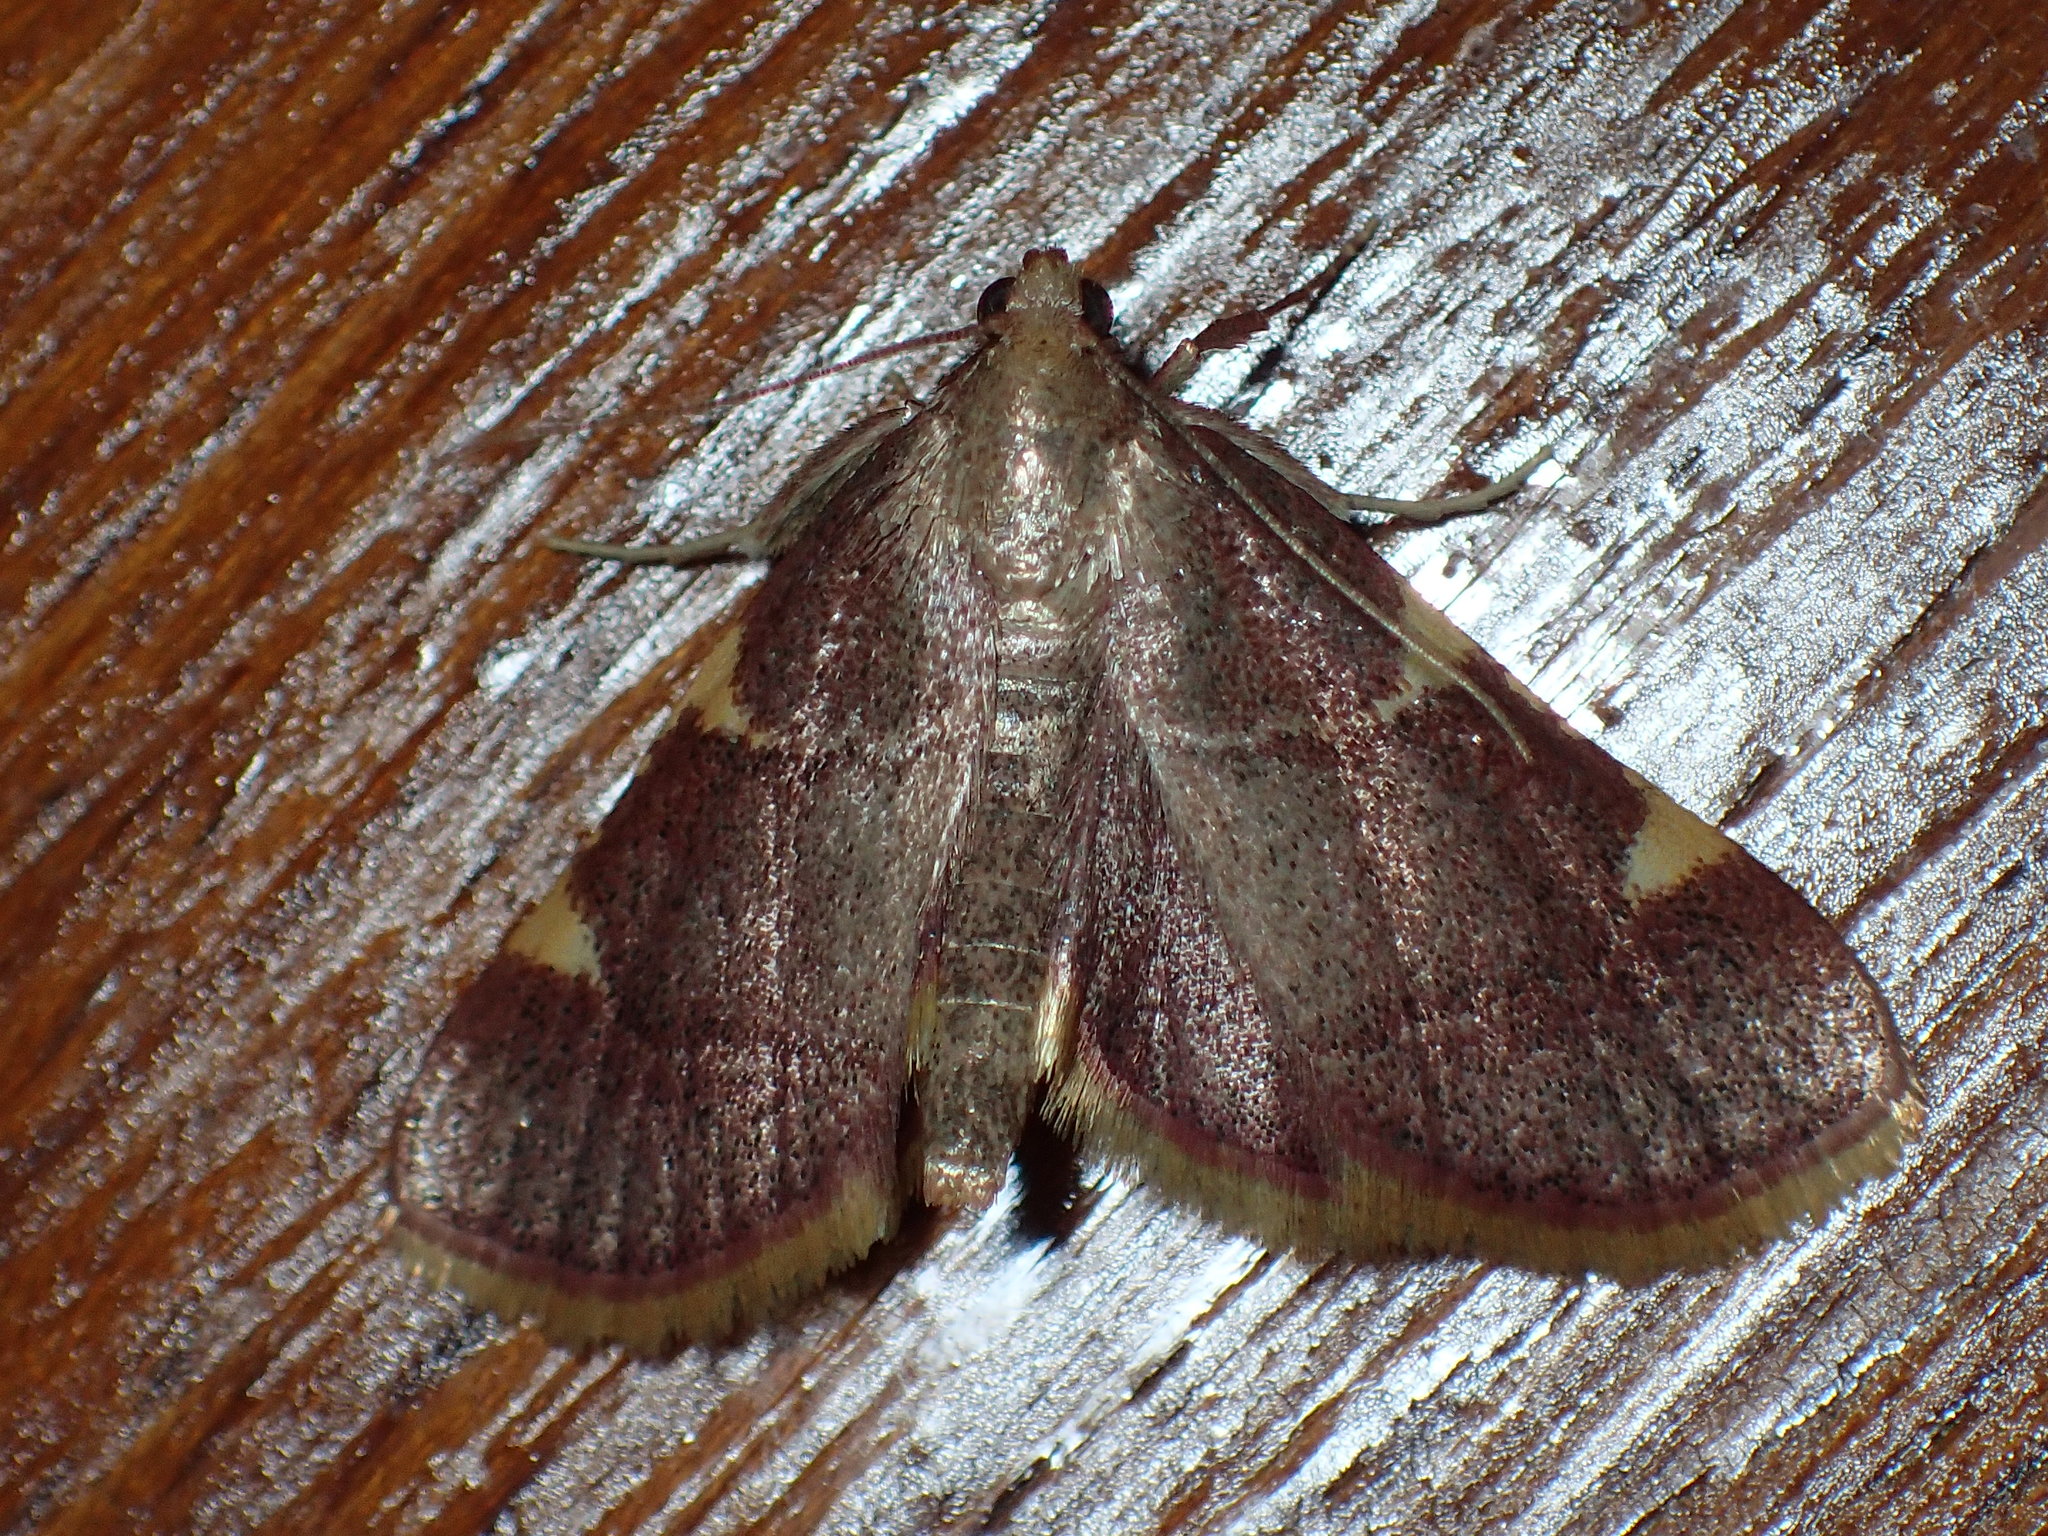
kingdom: Animalia
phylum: Arthropoda
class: Insecta
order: Lepidoptera
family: Pyralidae
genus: Hypsopygia
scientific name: Hypsopygia olinalis
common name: Yellow-fringed dolichomia moth
